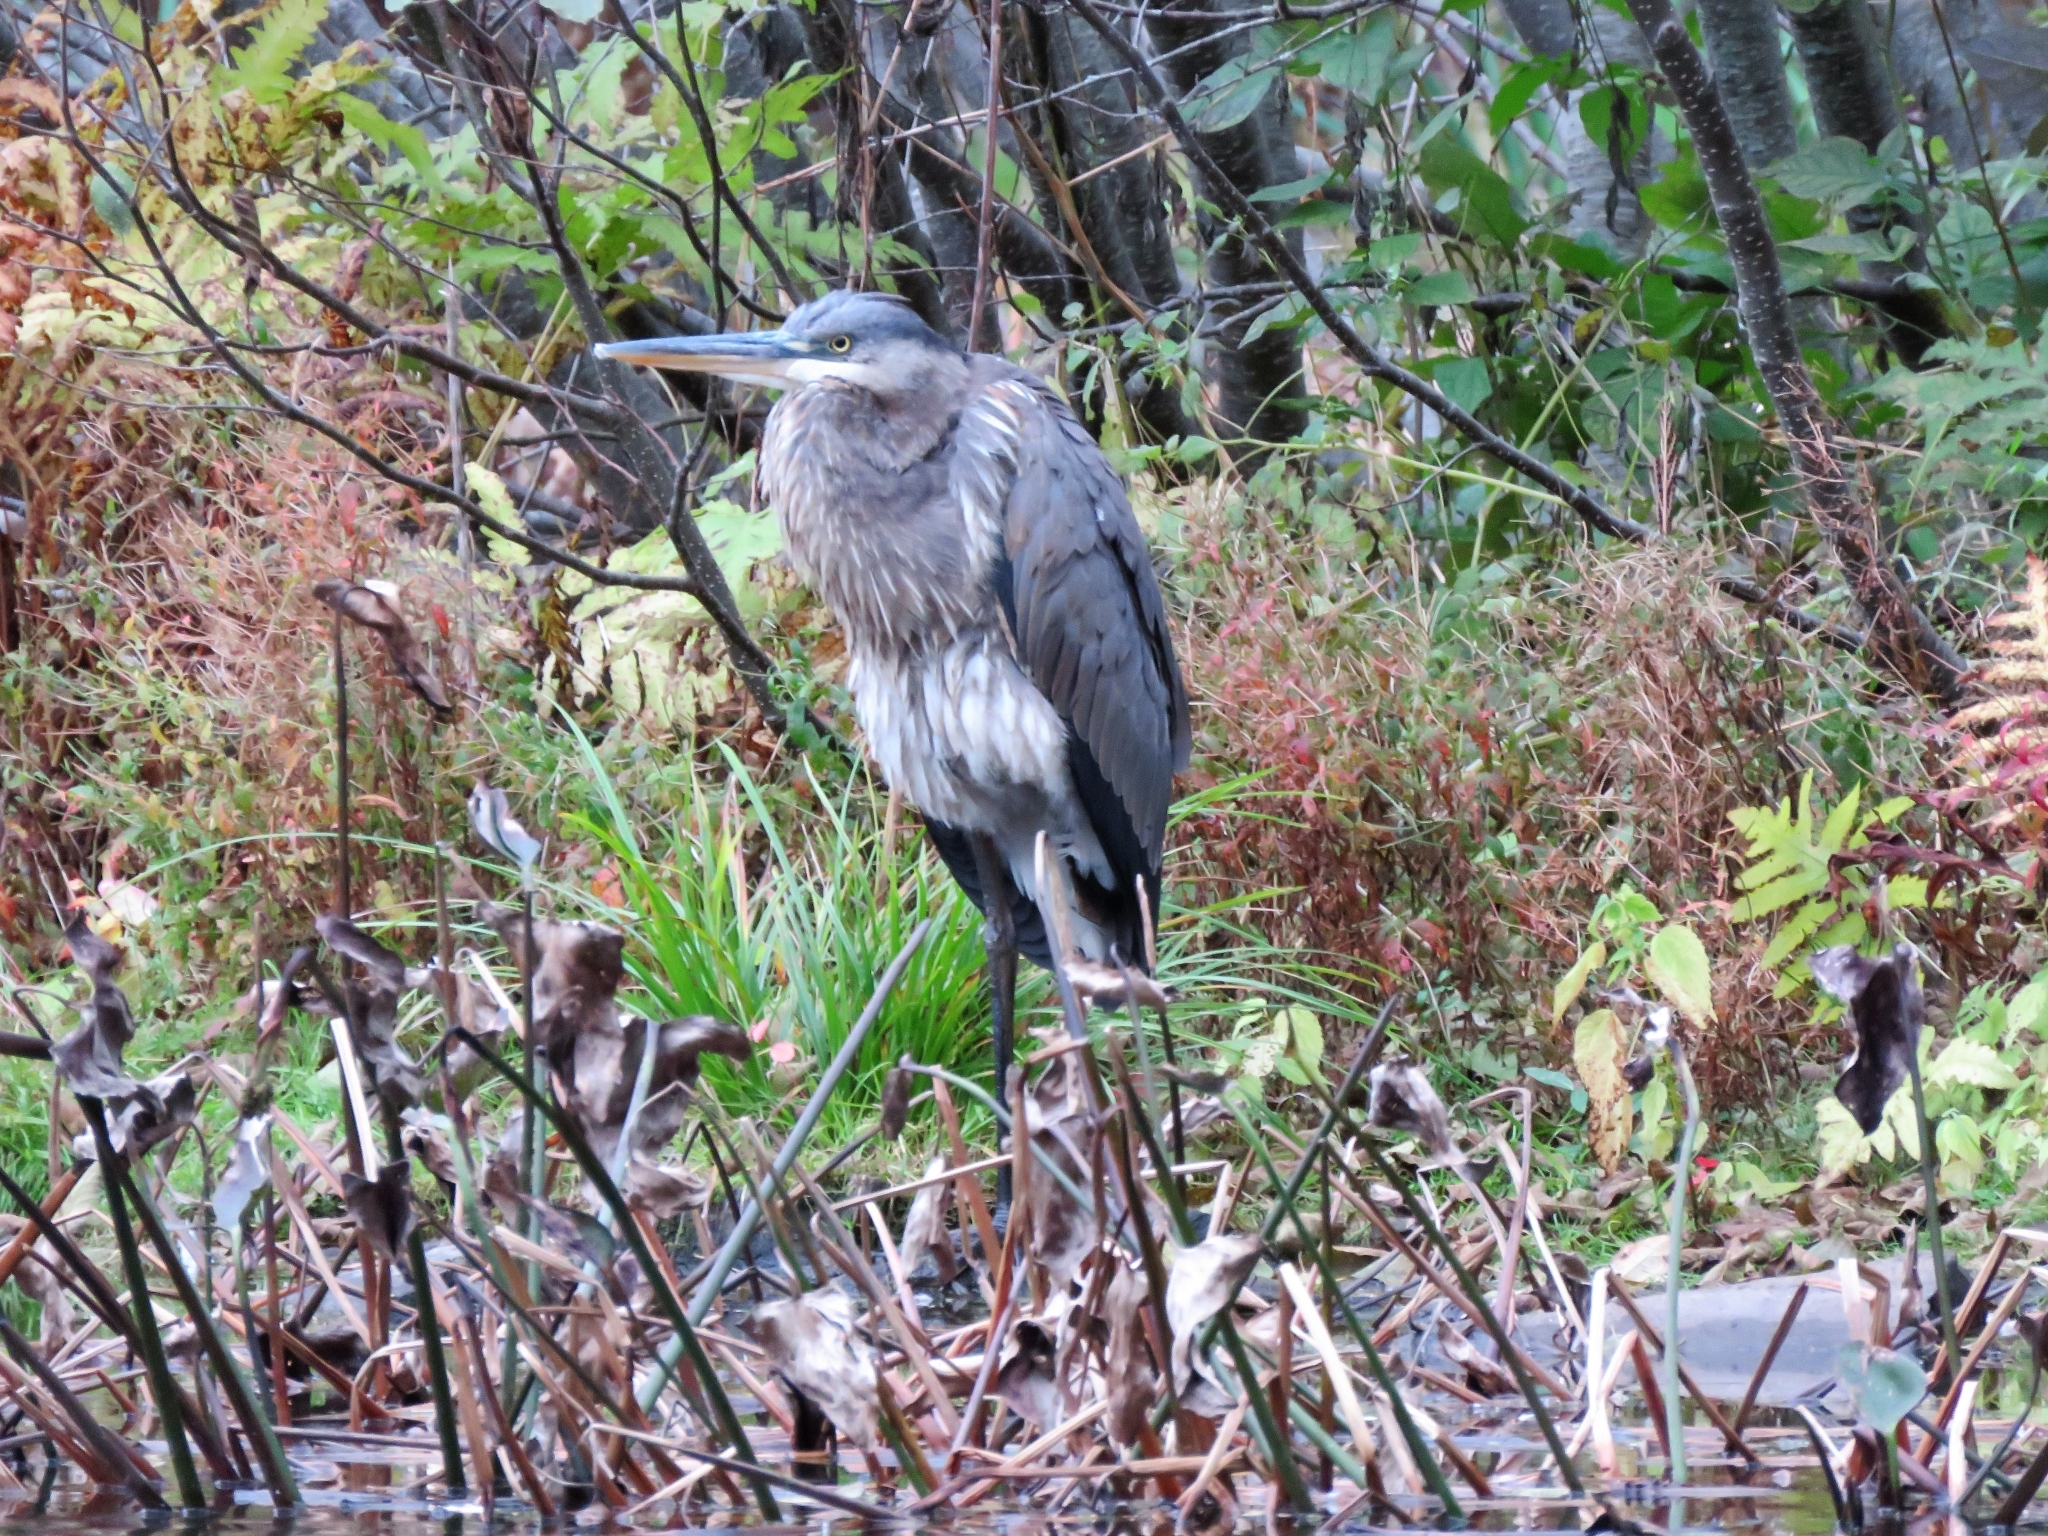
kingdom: Animalia
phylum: Chordata
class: Aves
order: Pelecaniformes
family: Ardeidae
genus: Ardea
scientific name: Ardea herodias
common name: Great blue heron
